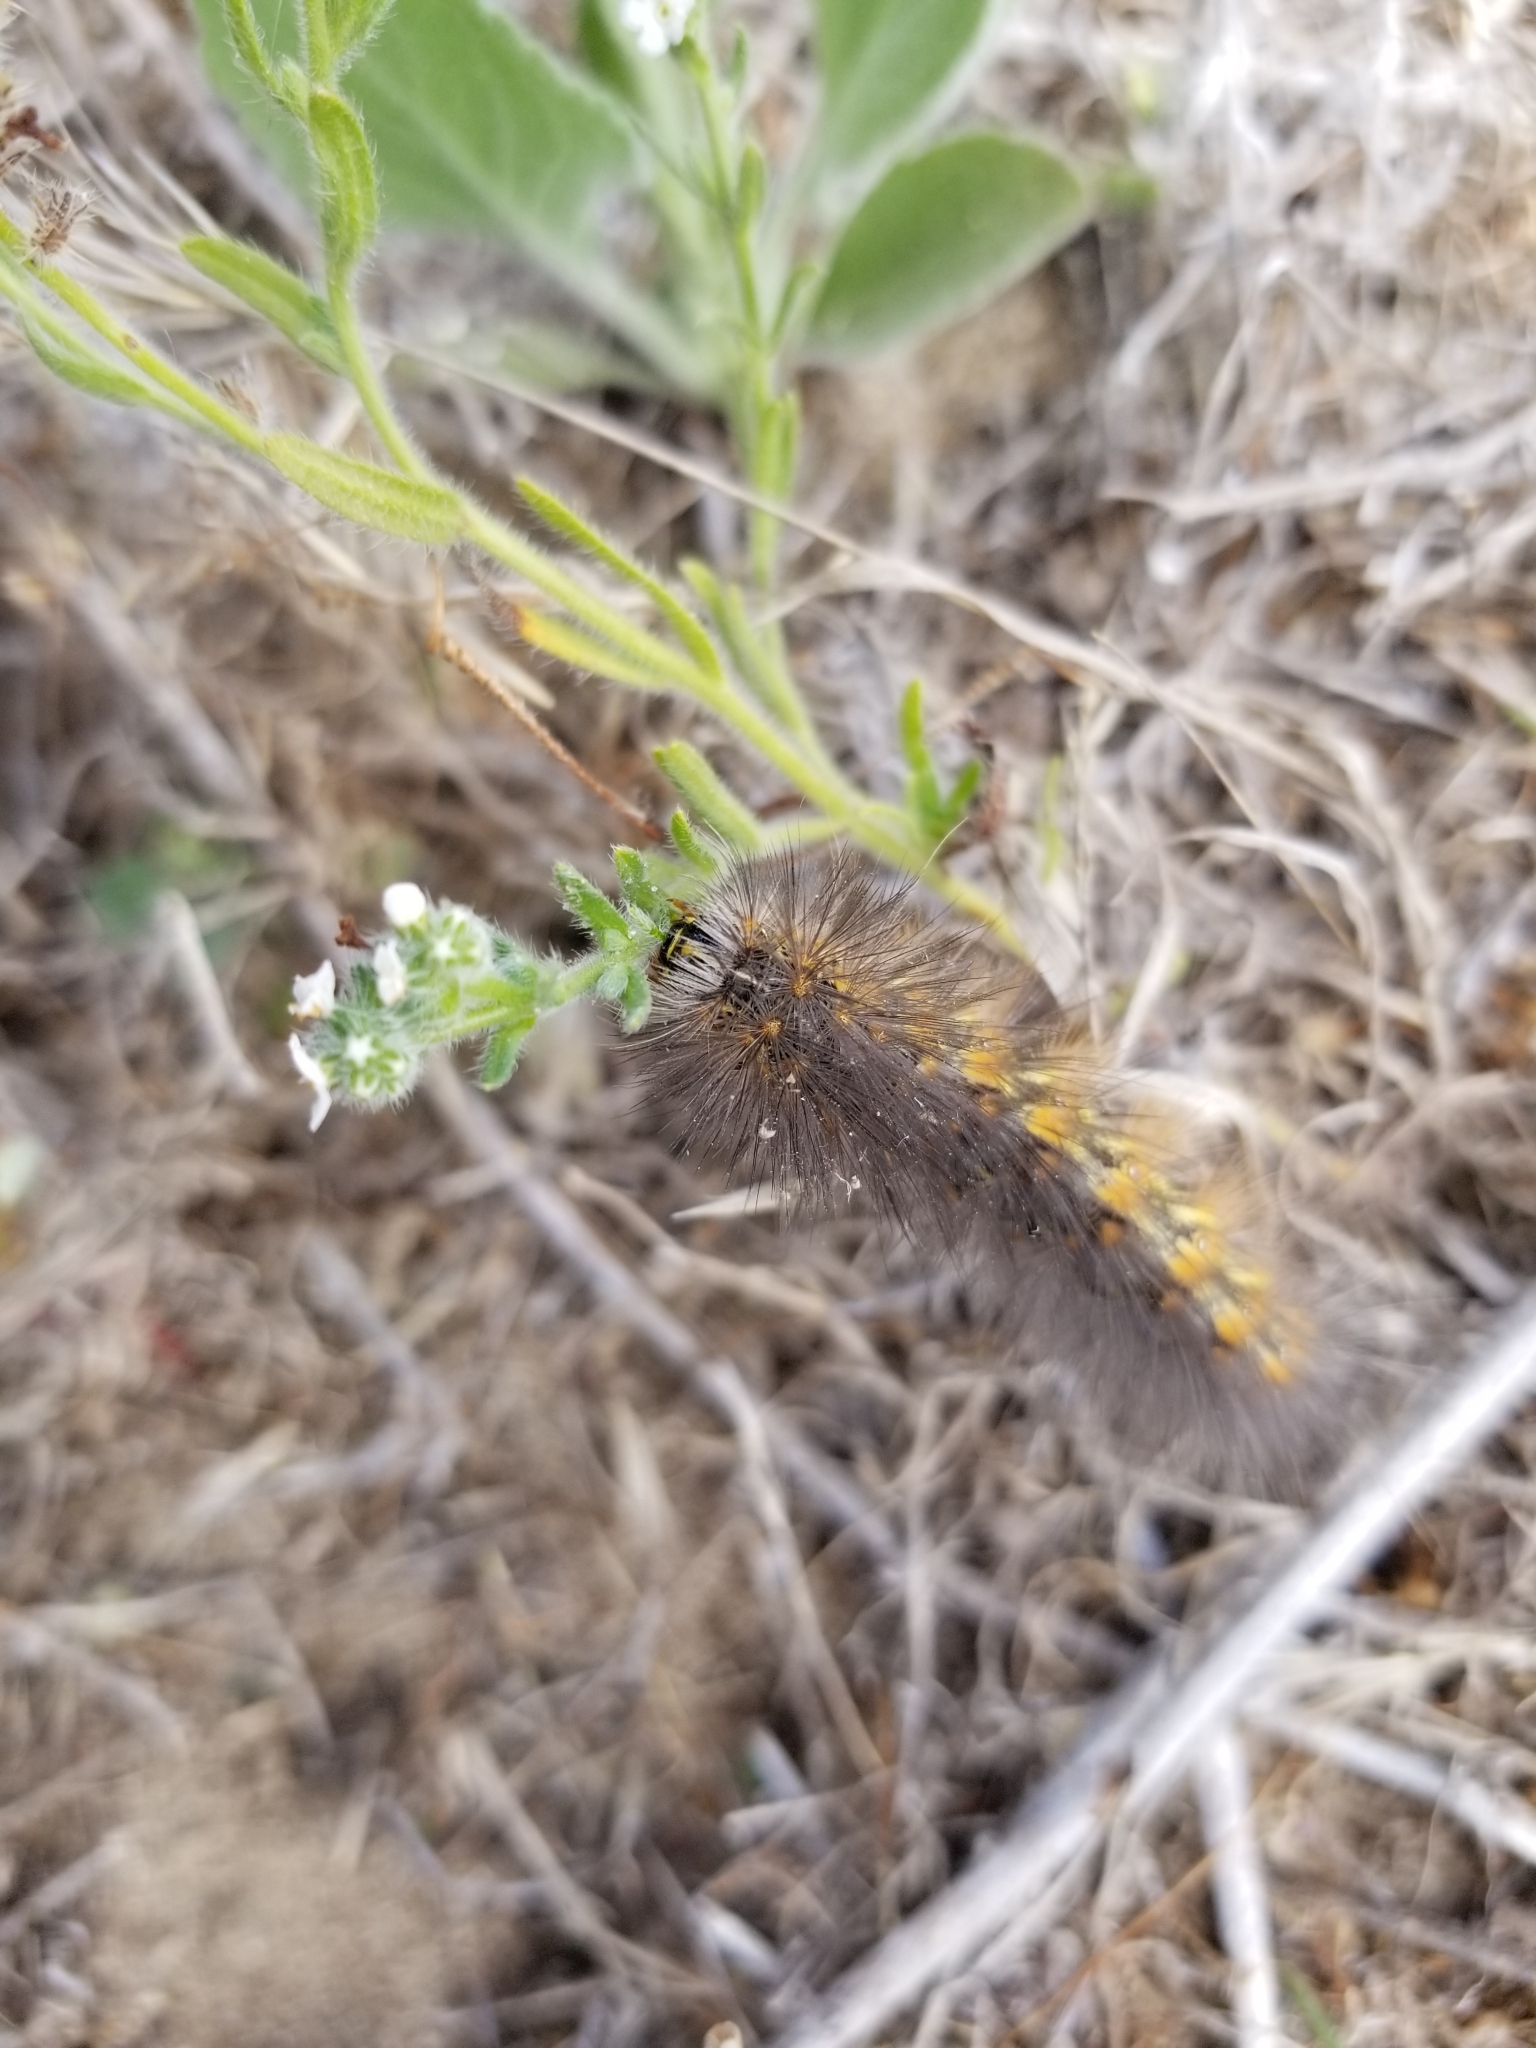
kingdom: Animalia
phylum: Arthropoda
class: Insecta
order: Lepidoptera
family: Erebidae
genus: Estigmene
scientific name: Estigmene acrea
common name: Salt marsh moth
